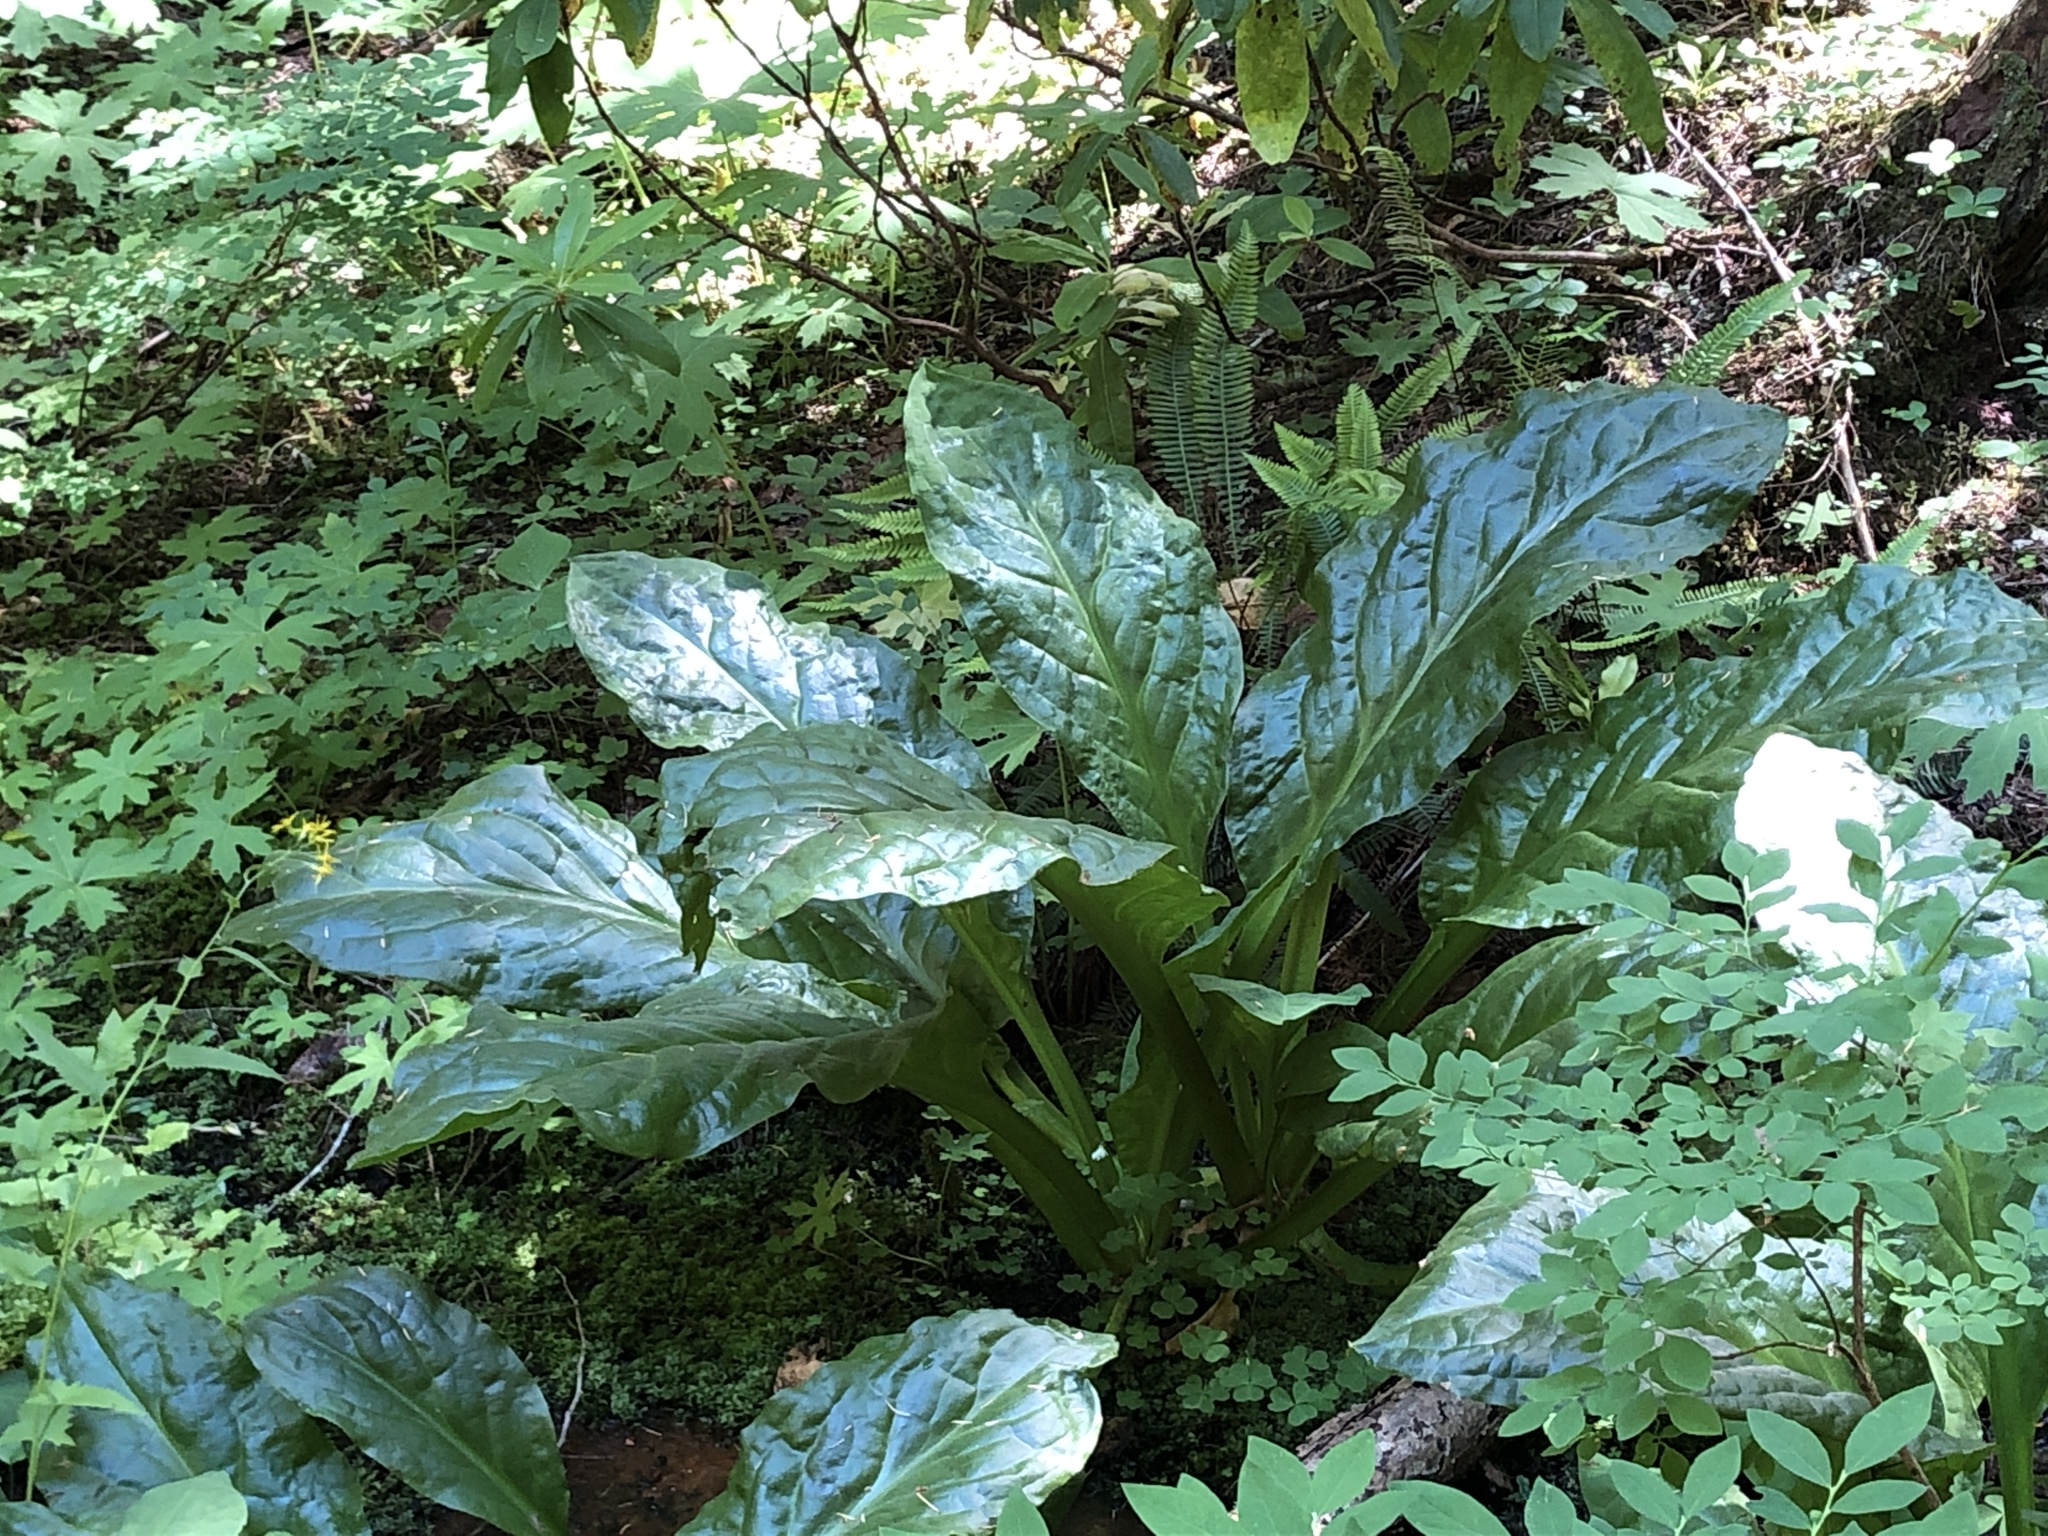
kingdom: Plantae
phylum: Tracheophyta
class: Liliopsida
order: Alismatales
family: Araceae
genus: Lysichiton
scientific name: Lysichiton americanus
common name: American skunk cabbage
